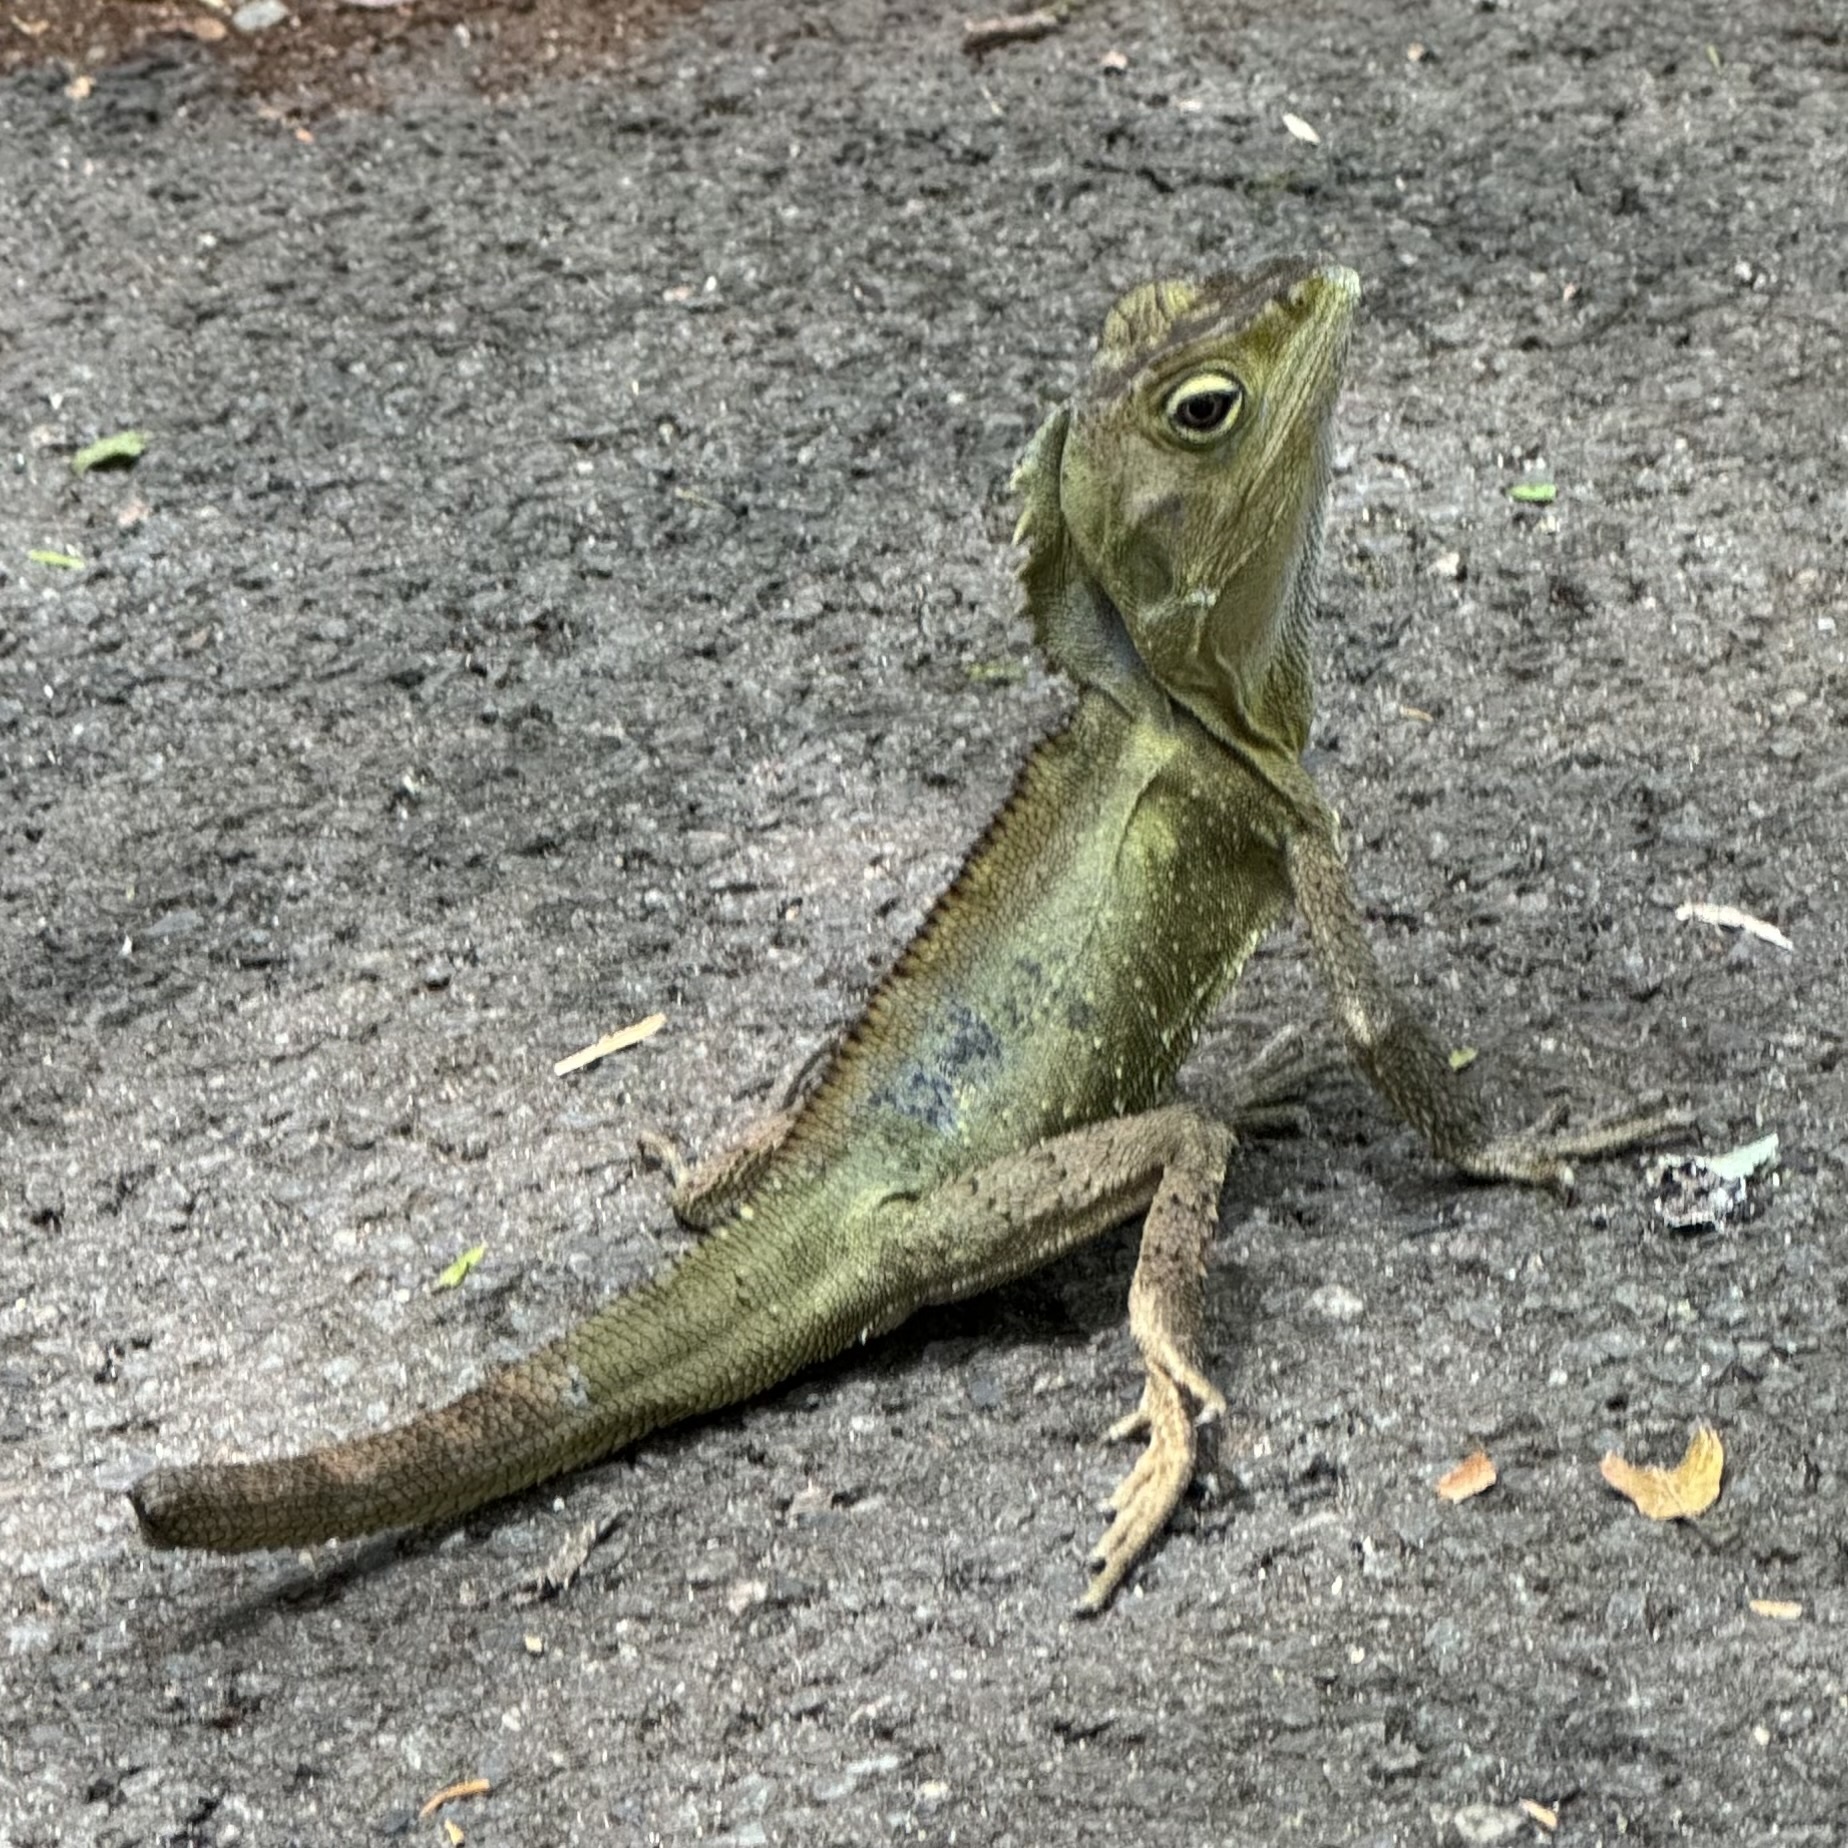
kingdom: Animalia
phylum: Chordata
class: Squamata
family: Agamidae
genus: Lophosaurus
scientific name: Lophosaurus spinipes
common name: Southern angle-headed dragon
